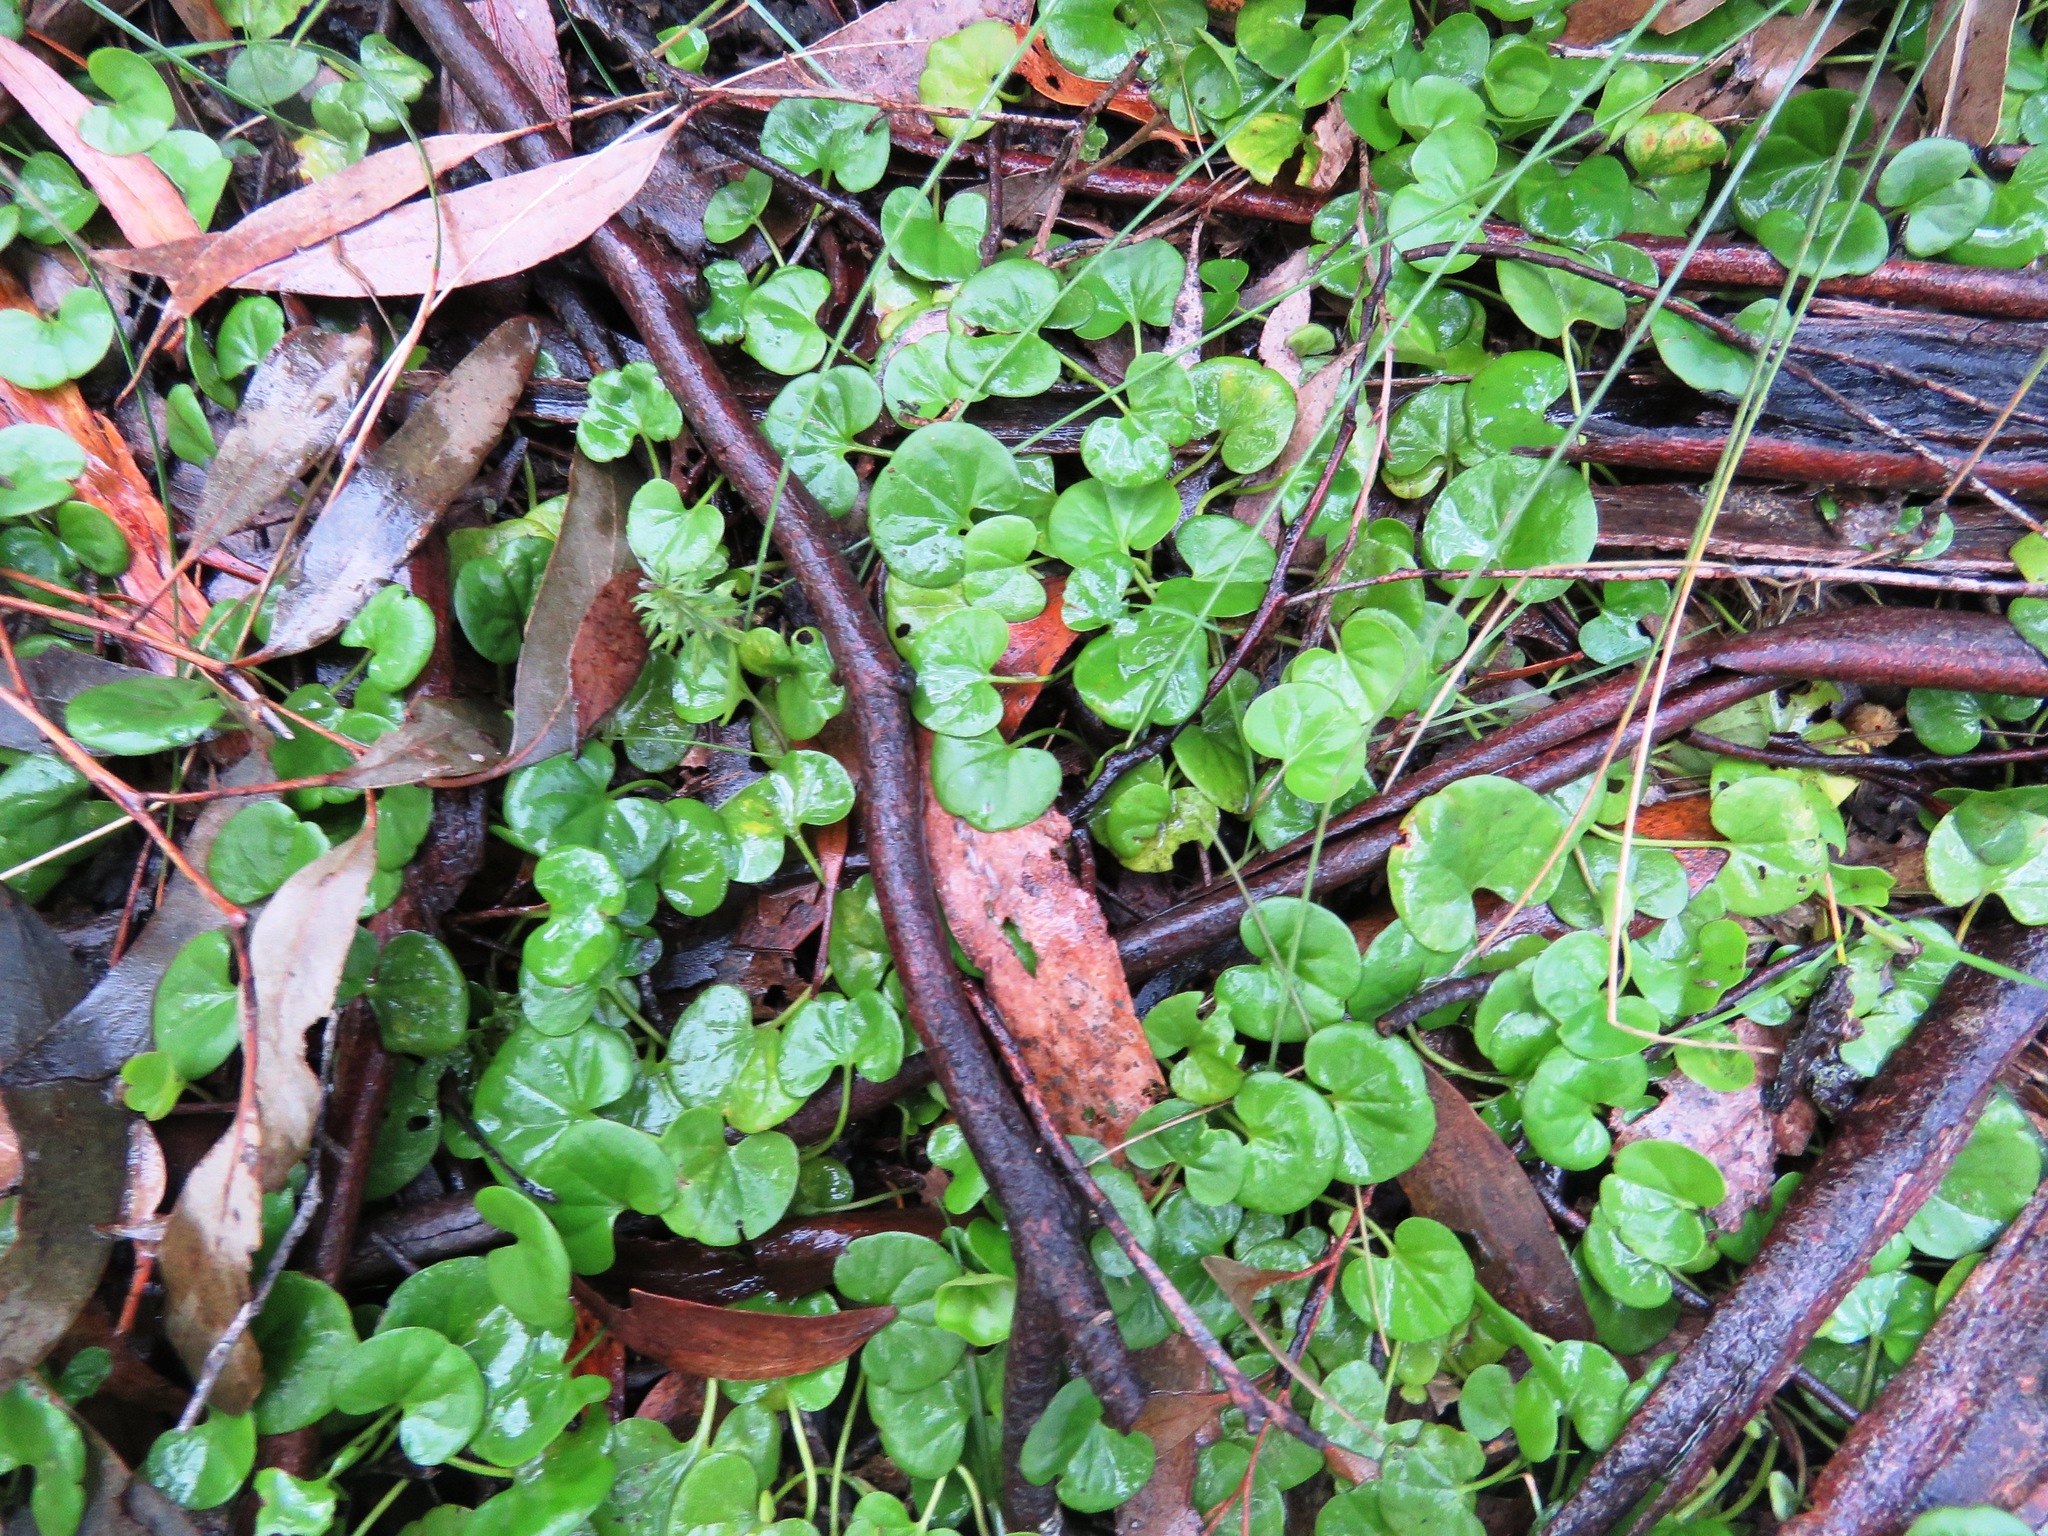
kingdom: Plantae
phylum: Tracheophyta
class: Magnoliopsida
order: Solanales
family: Convolvulaceae
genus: Dichondra
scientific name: Dichondra repens
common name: Kidneyweed
